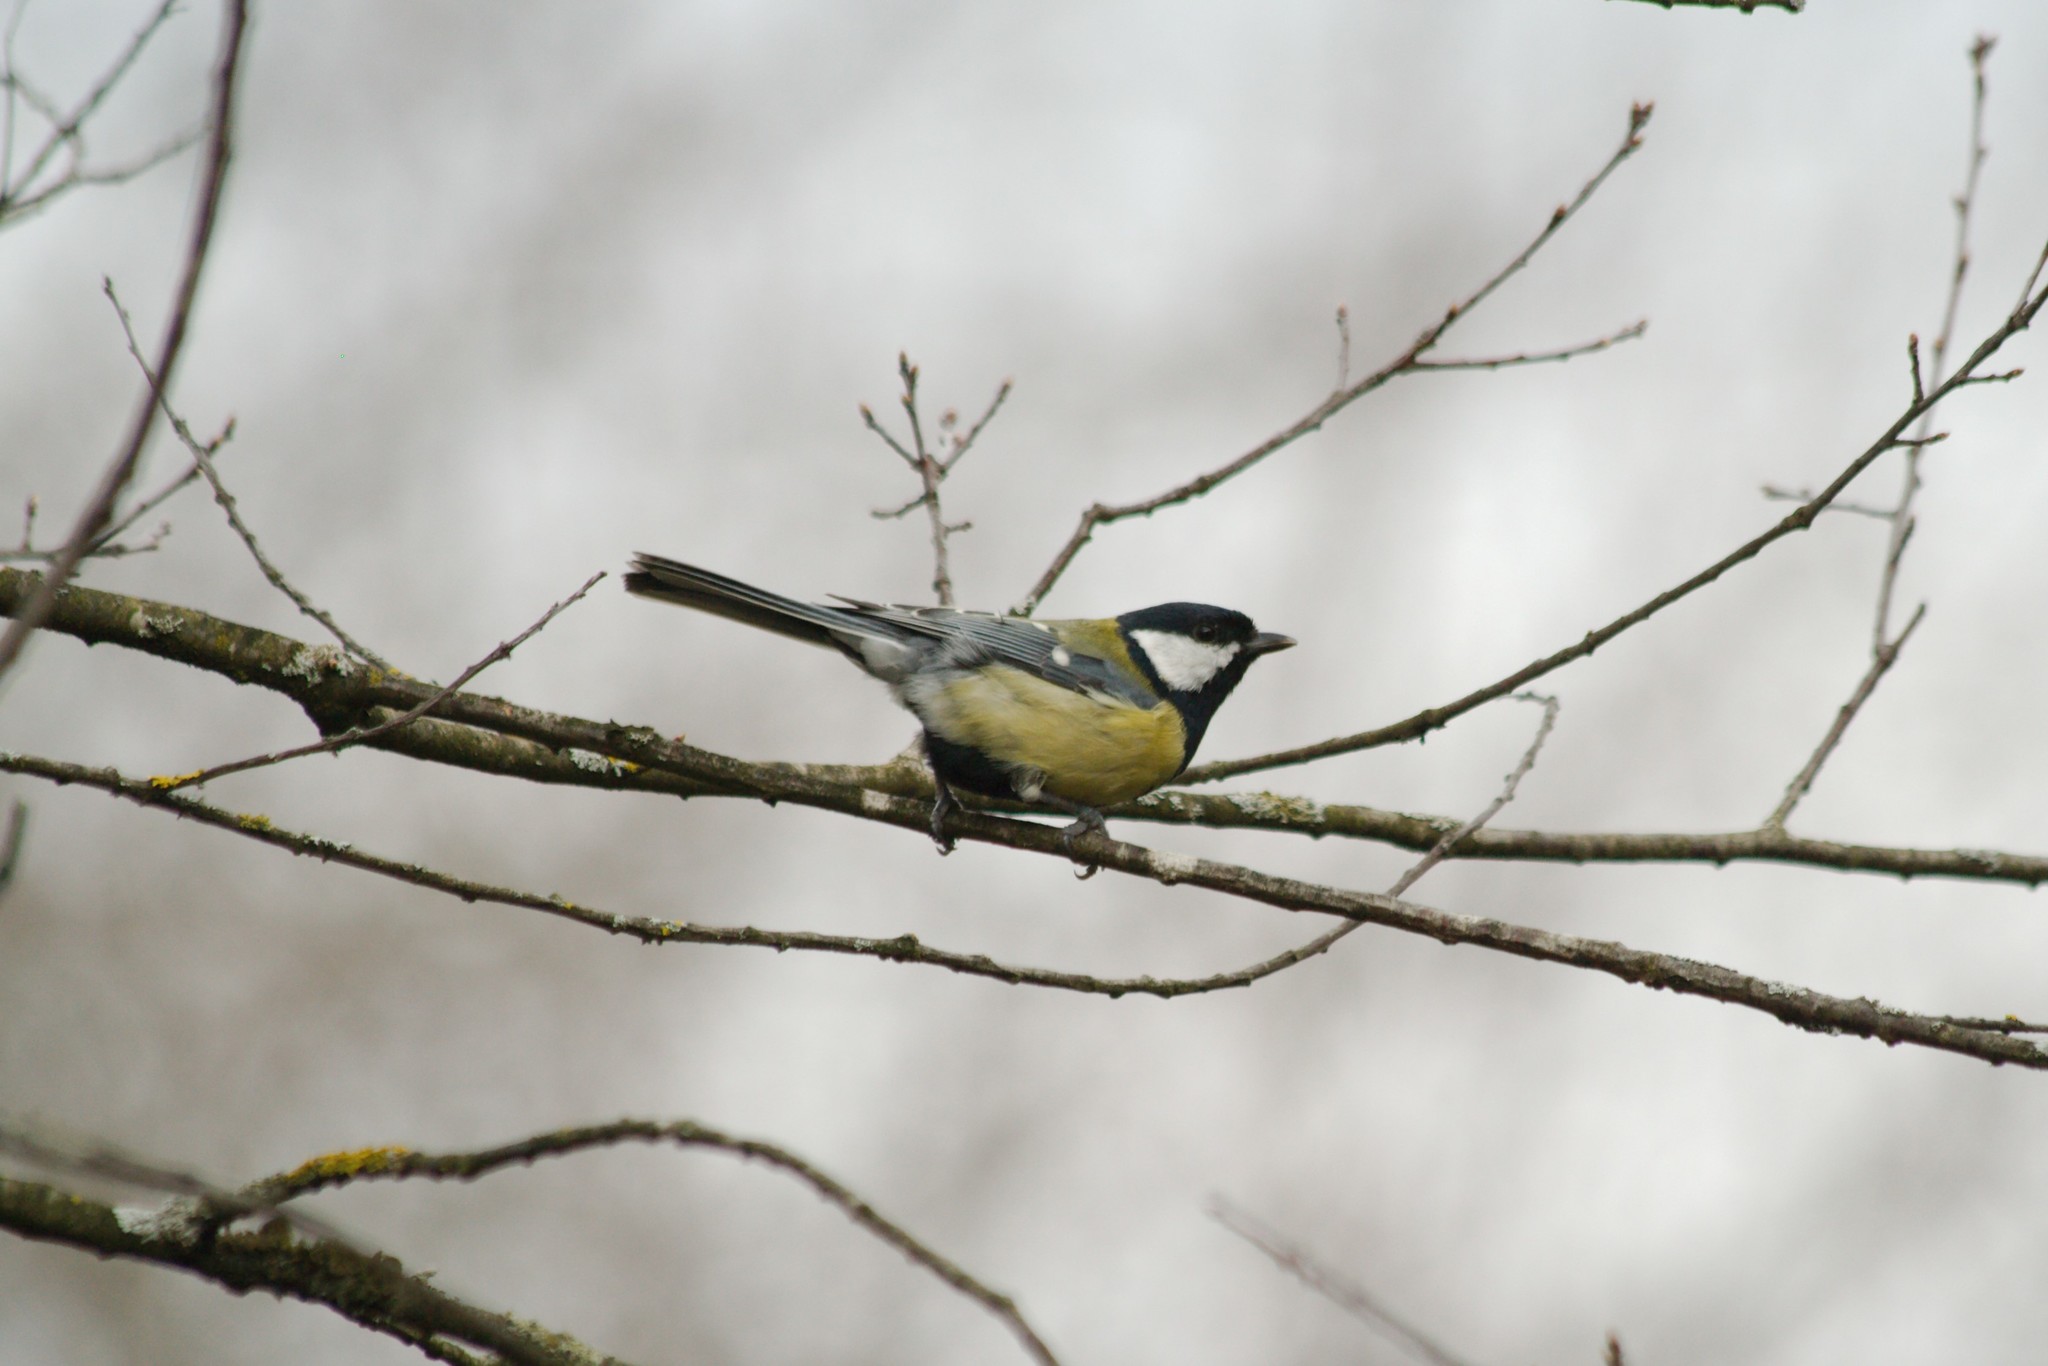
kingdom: Animalia
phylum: Chordata
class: Aves
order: Passeriformes
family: Paridae
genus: Parus
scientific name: Parus major
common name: Great tit
